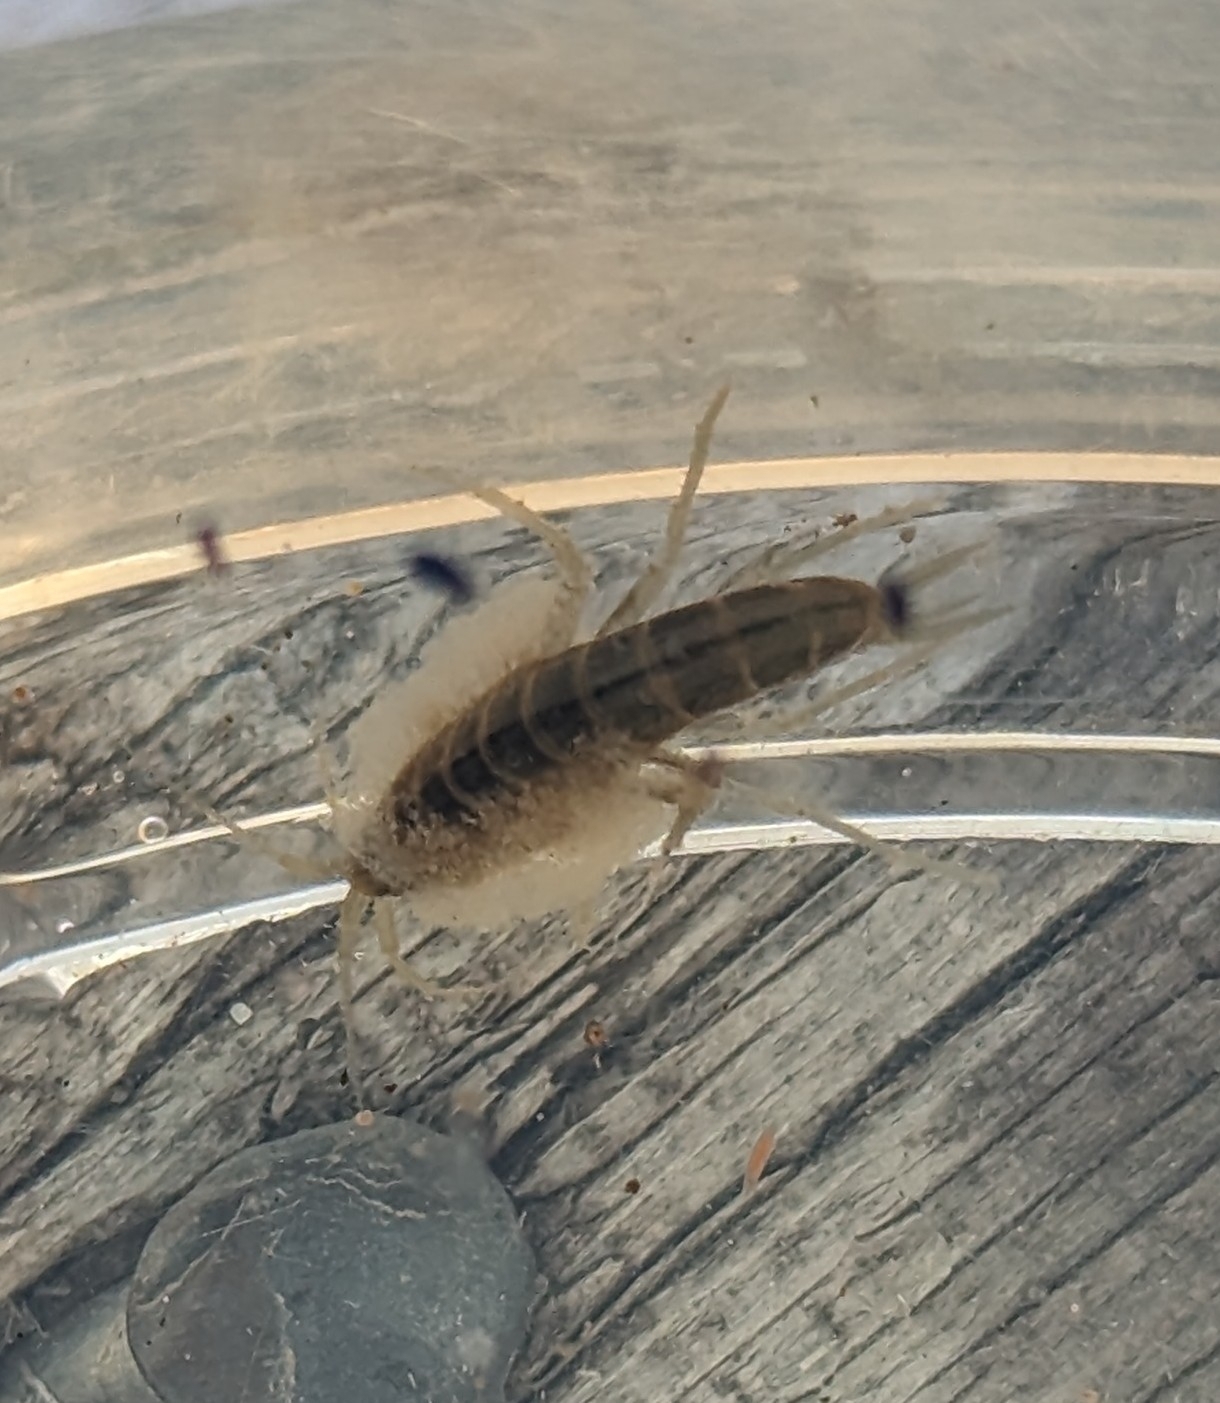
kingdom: Animalia
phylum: Arthropoda
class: Malacostraca
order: Amphipoda
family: Gammaridae
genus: Gammarus
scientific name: Gammarus lacustris
